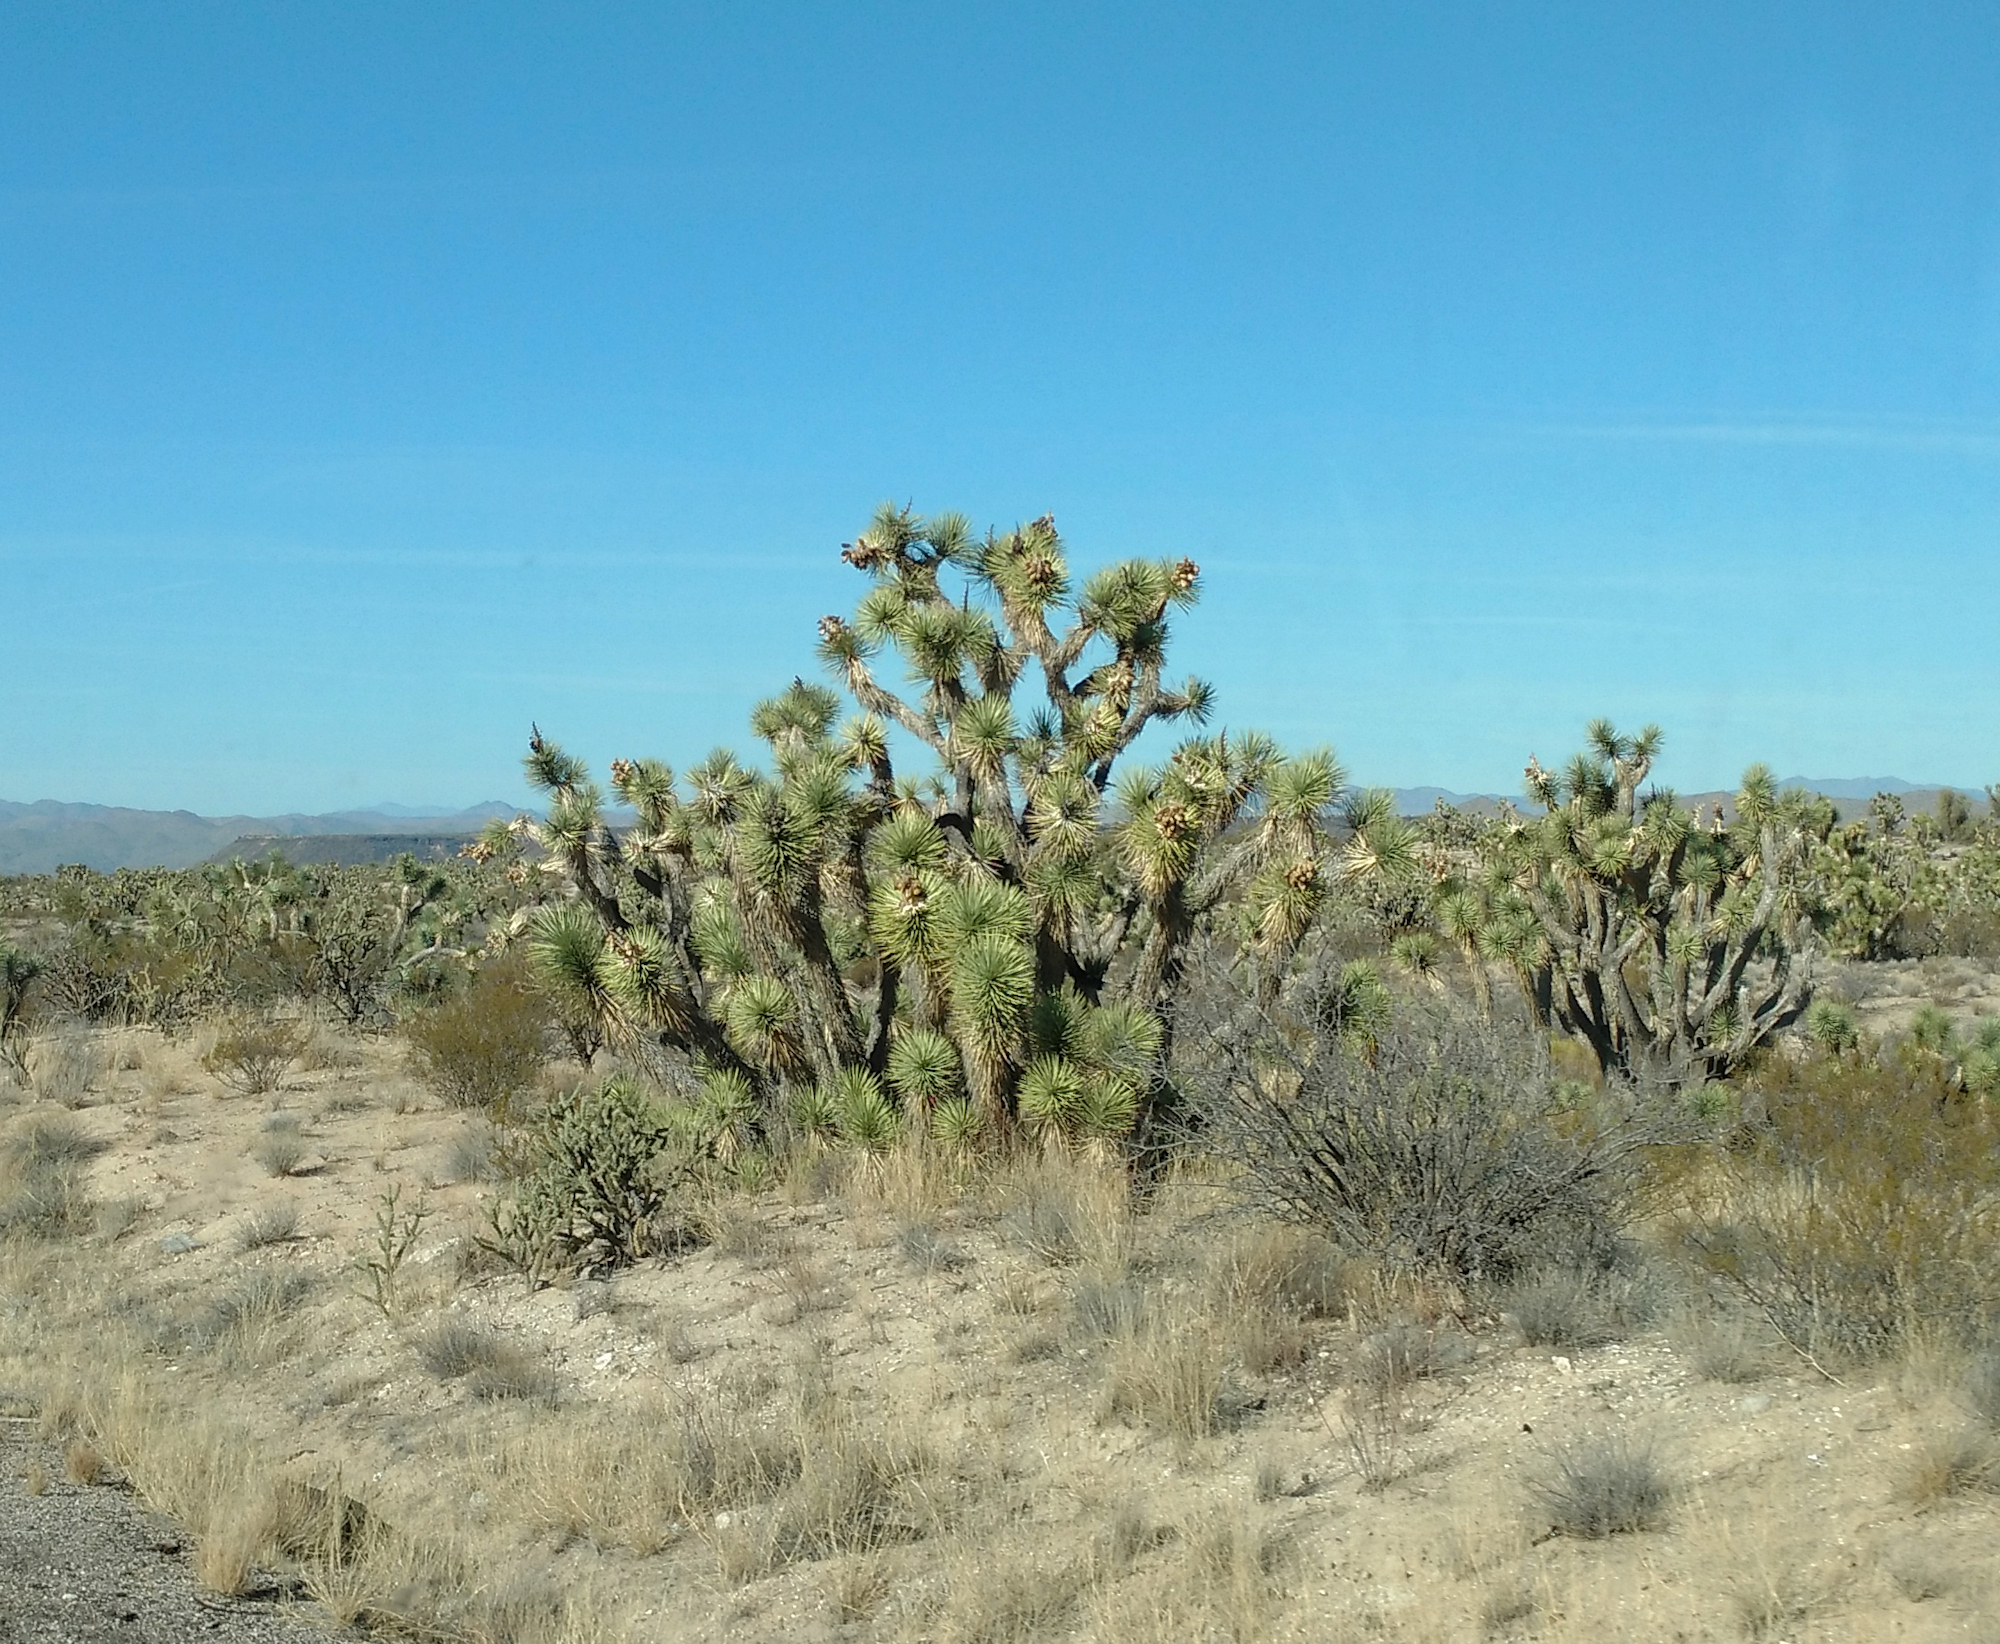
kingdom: Plantae
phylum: Tracheophyta
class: Liliopsida
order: Asparagales
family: Asparagaceae
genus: Yucca
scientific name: Yucca brevifolia
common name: Joshua tree
